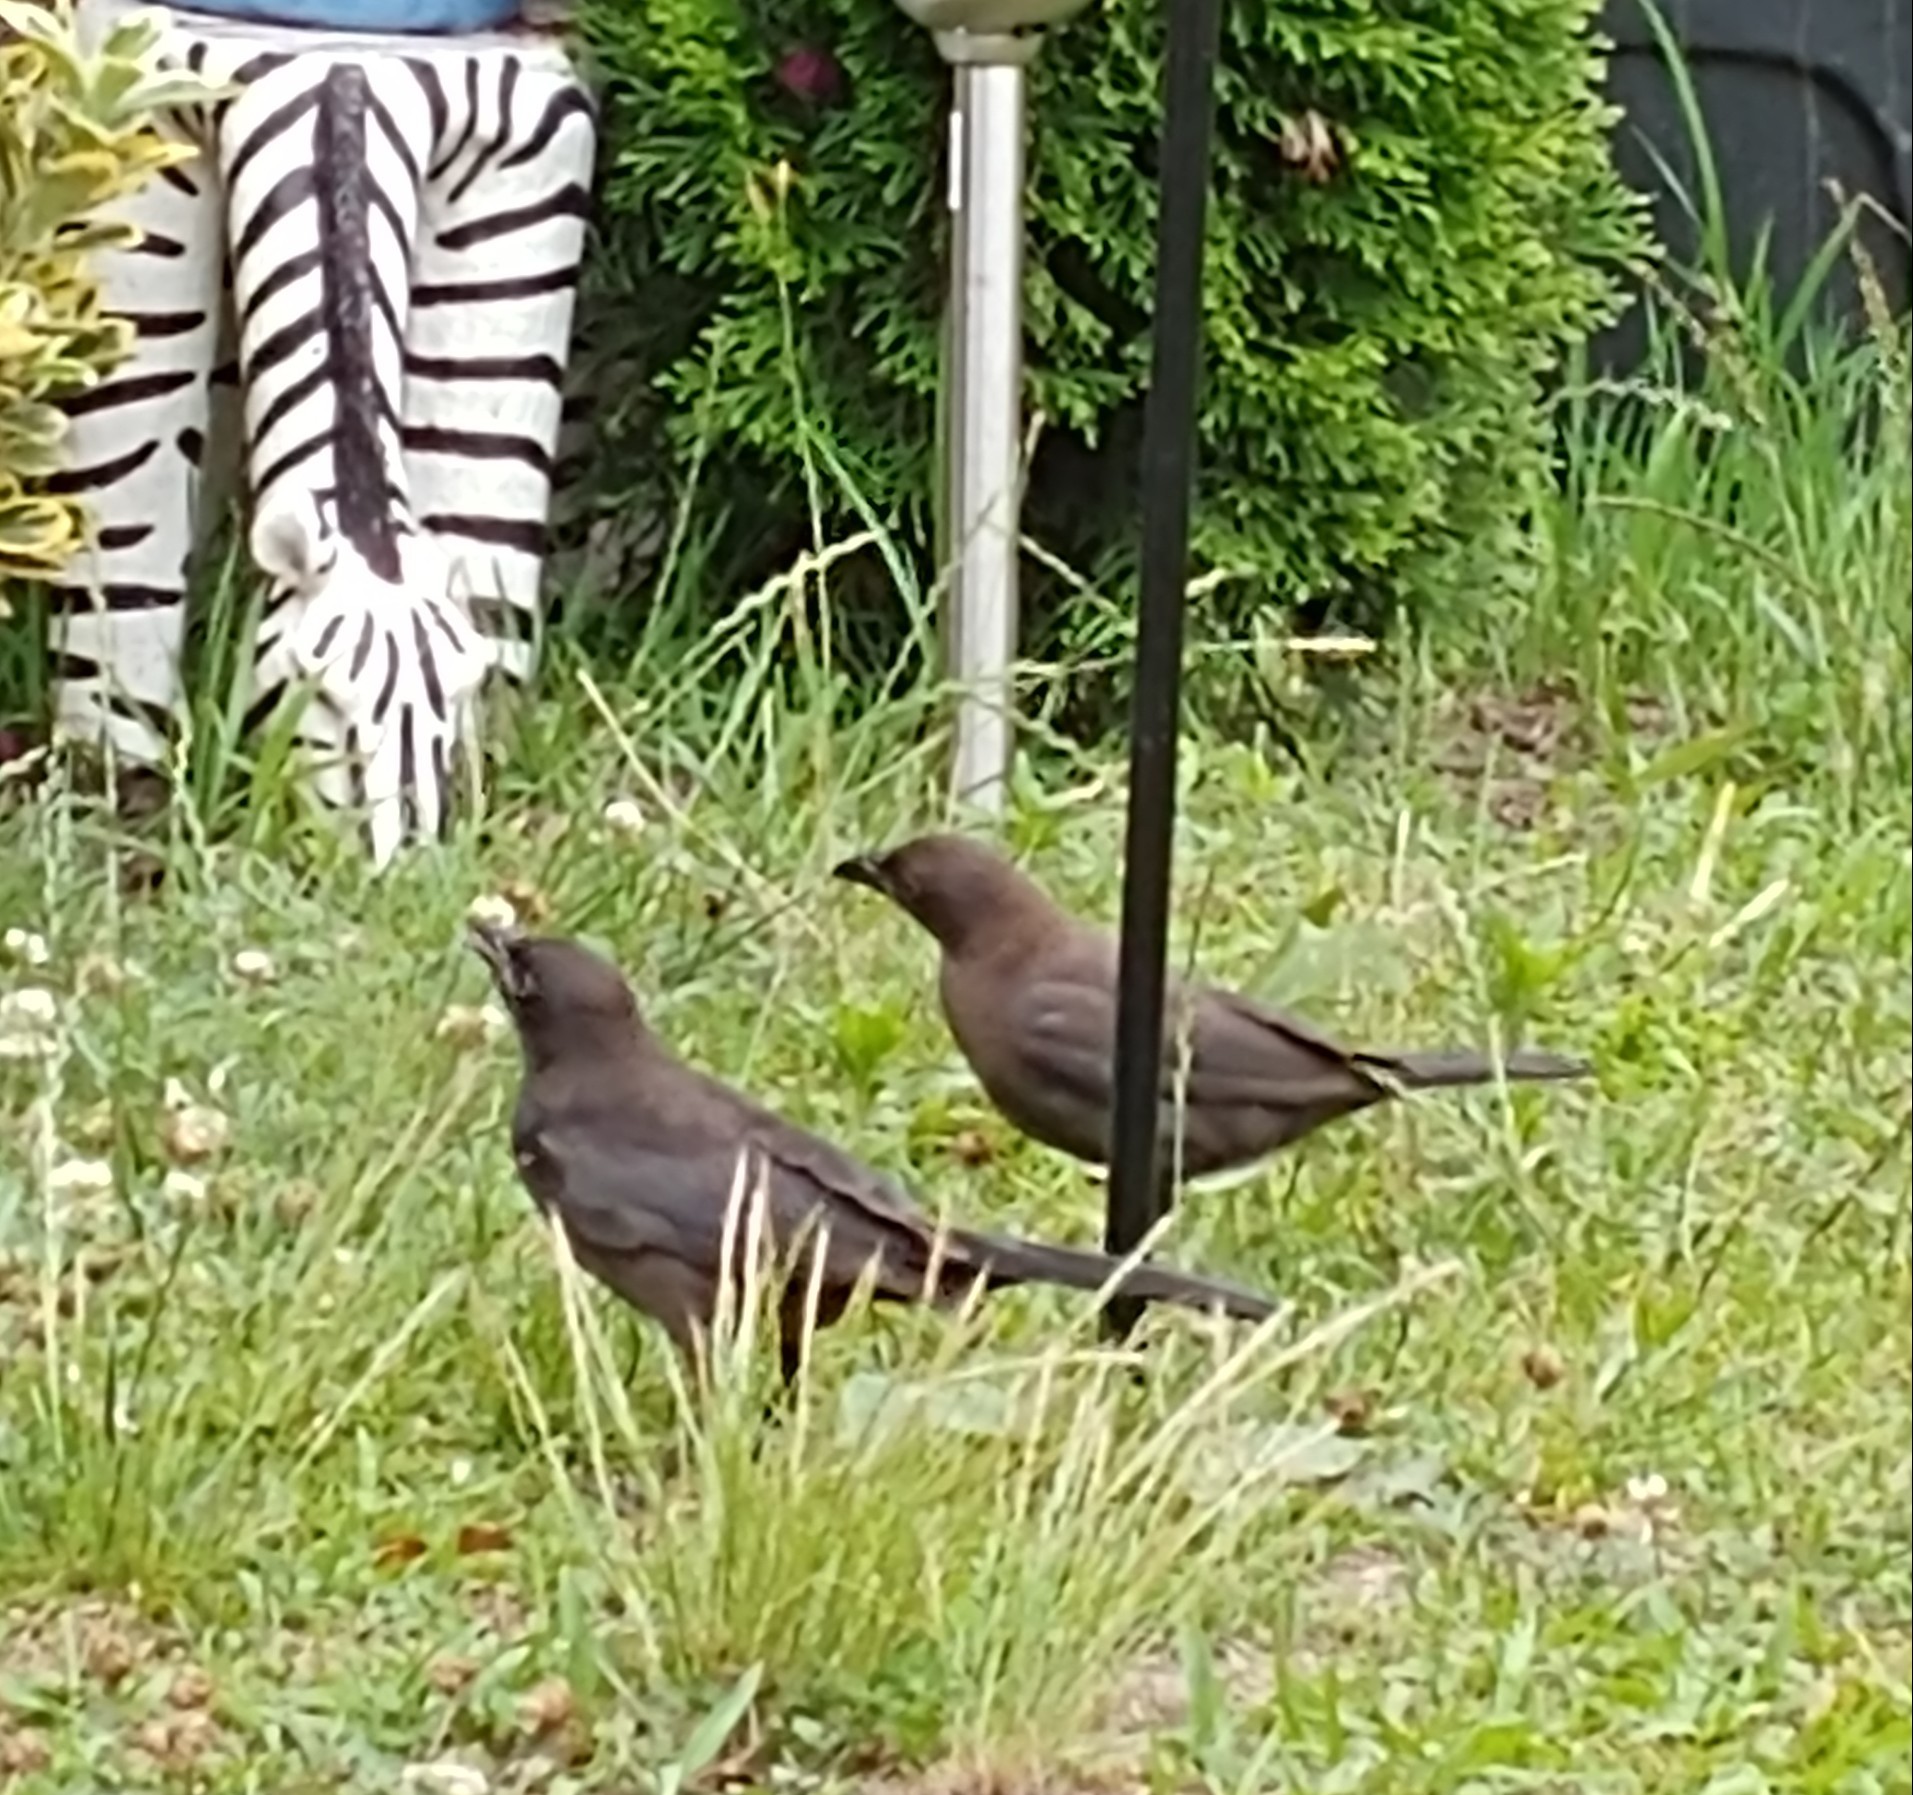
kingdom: Animalia
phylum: Chordata
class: Aves
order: Passeriformes
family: Icteridae
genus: Quiscalus
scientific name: Quiscalus quiscula
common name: Common grackle
